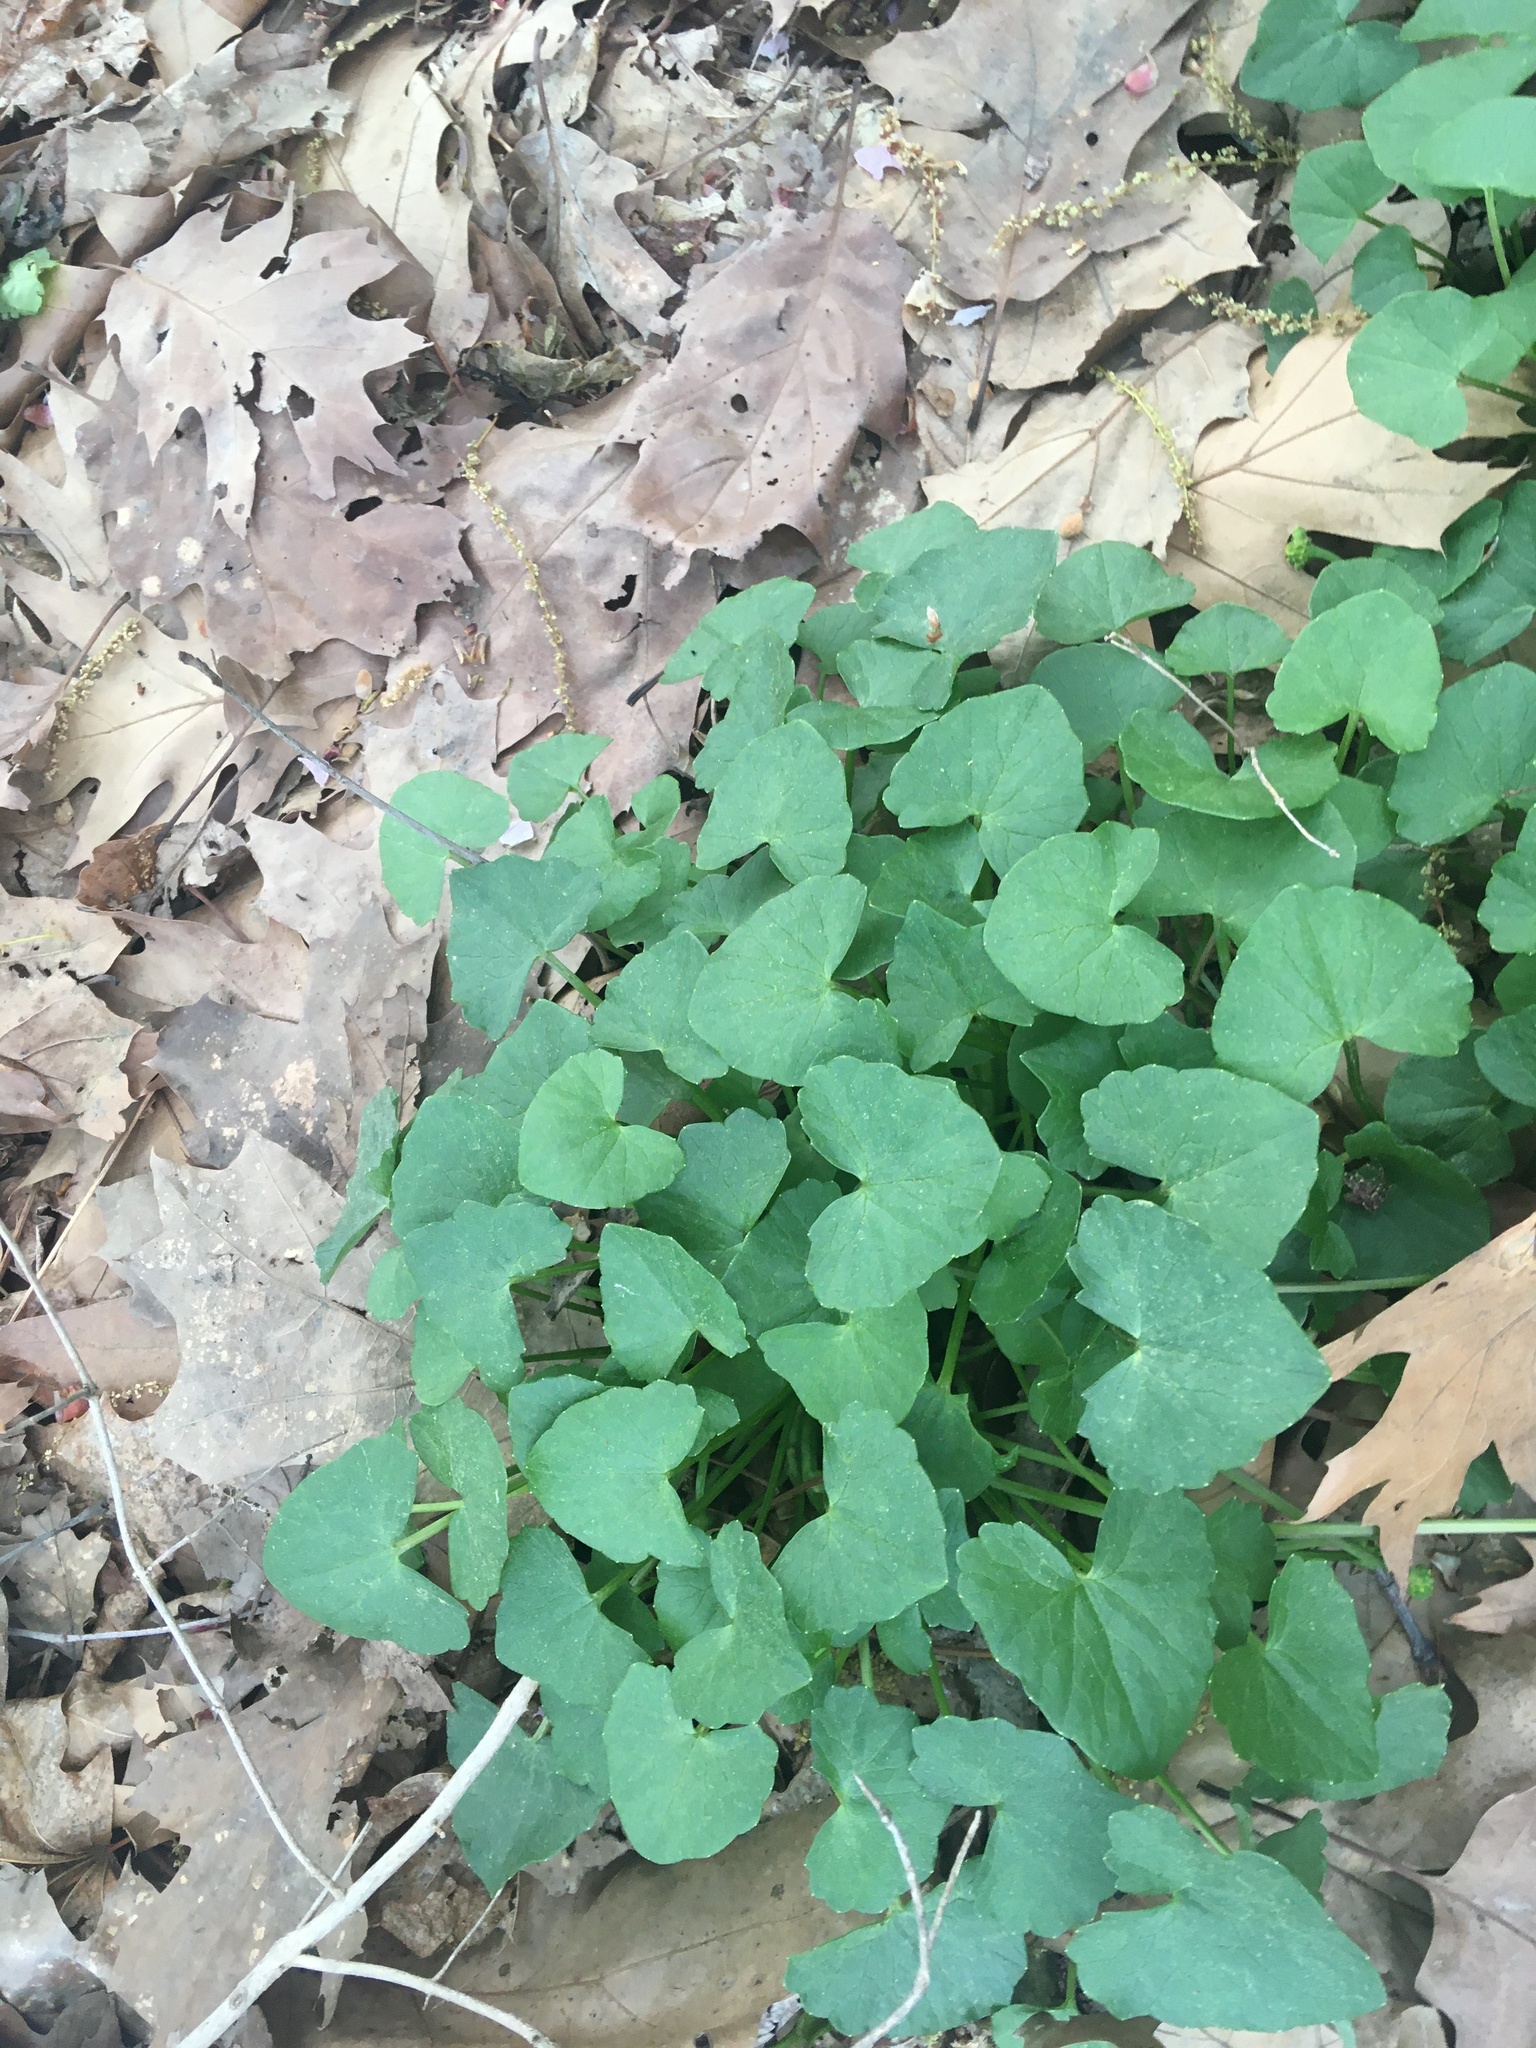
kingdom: Plantae
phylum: Tracheophyta
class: Magnoliopsida
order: Ranunculales
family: Ranunculaceae
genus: Ficaria
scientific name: Ficaria verna
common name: Lesser celandine
